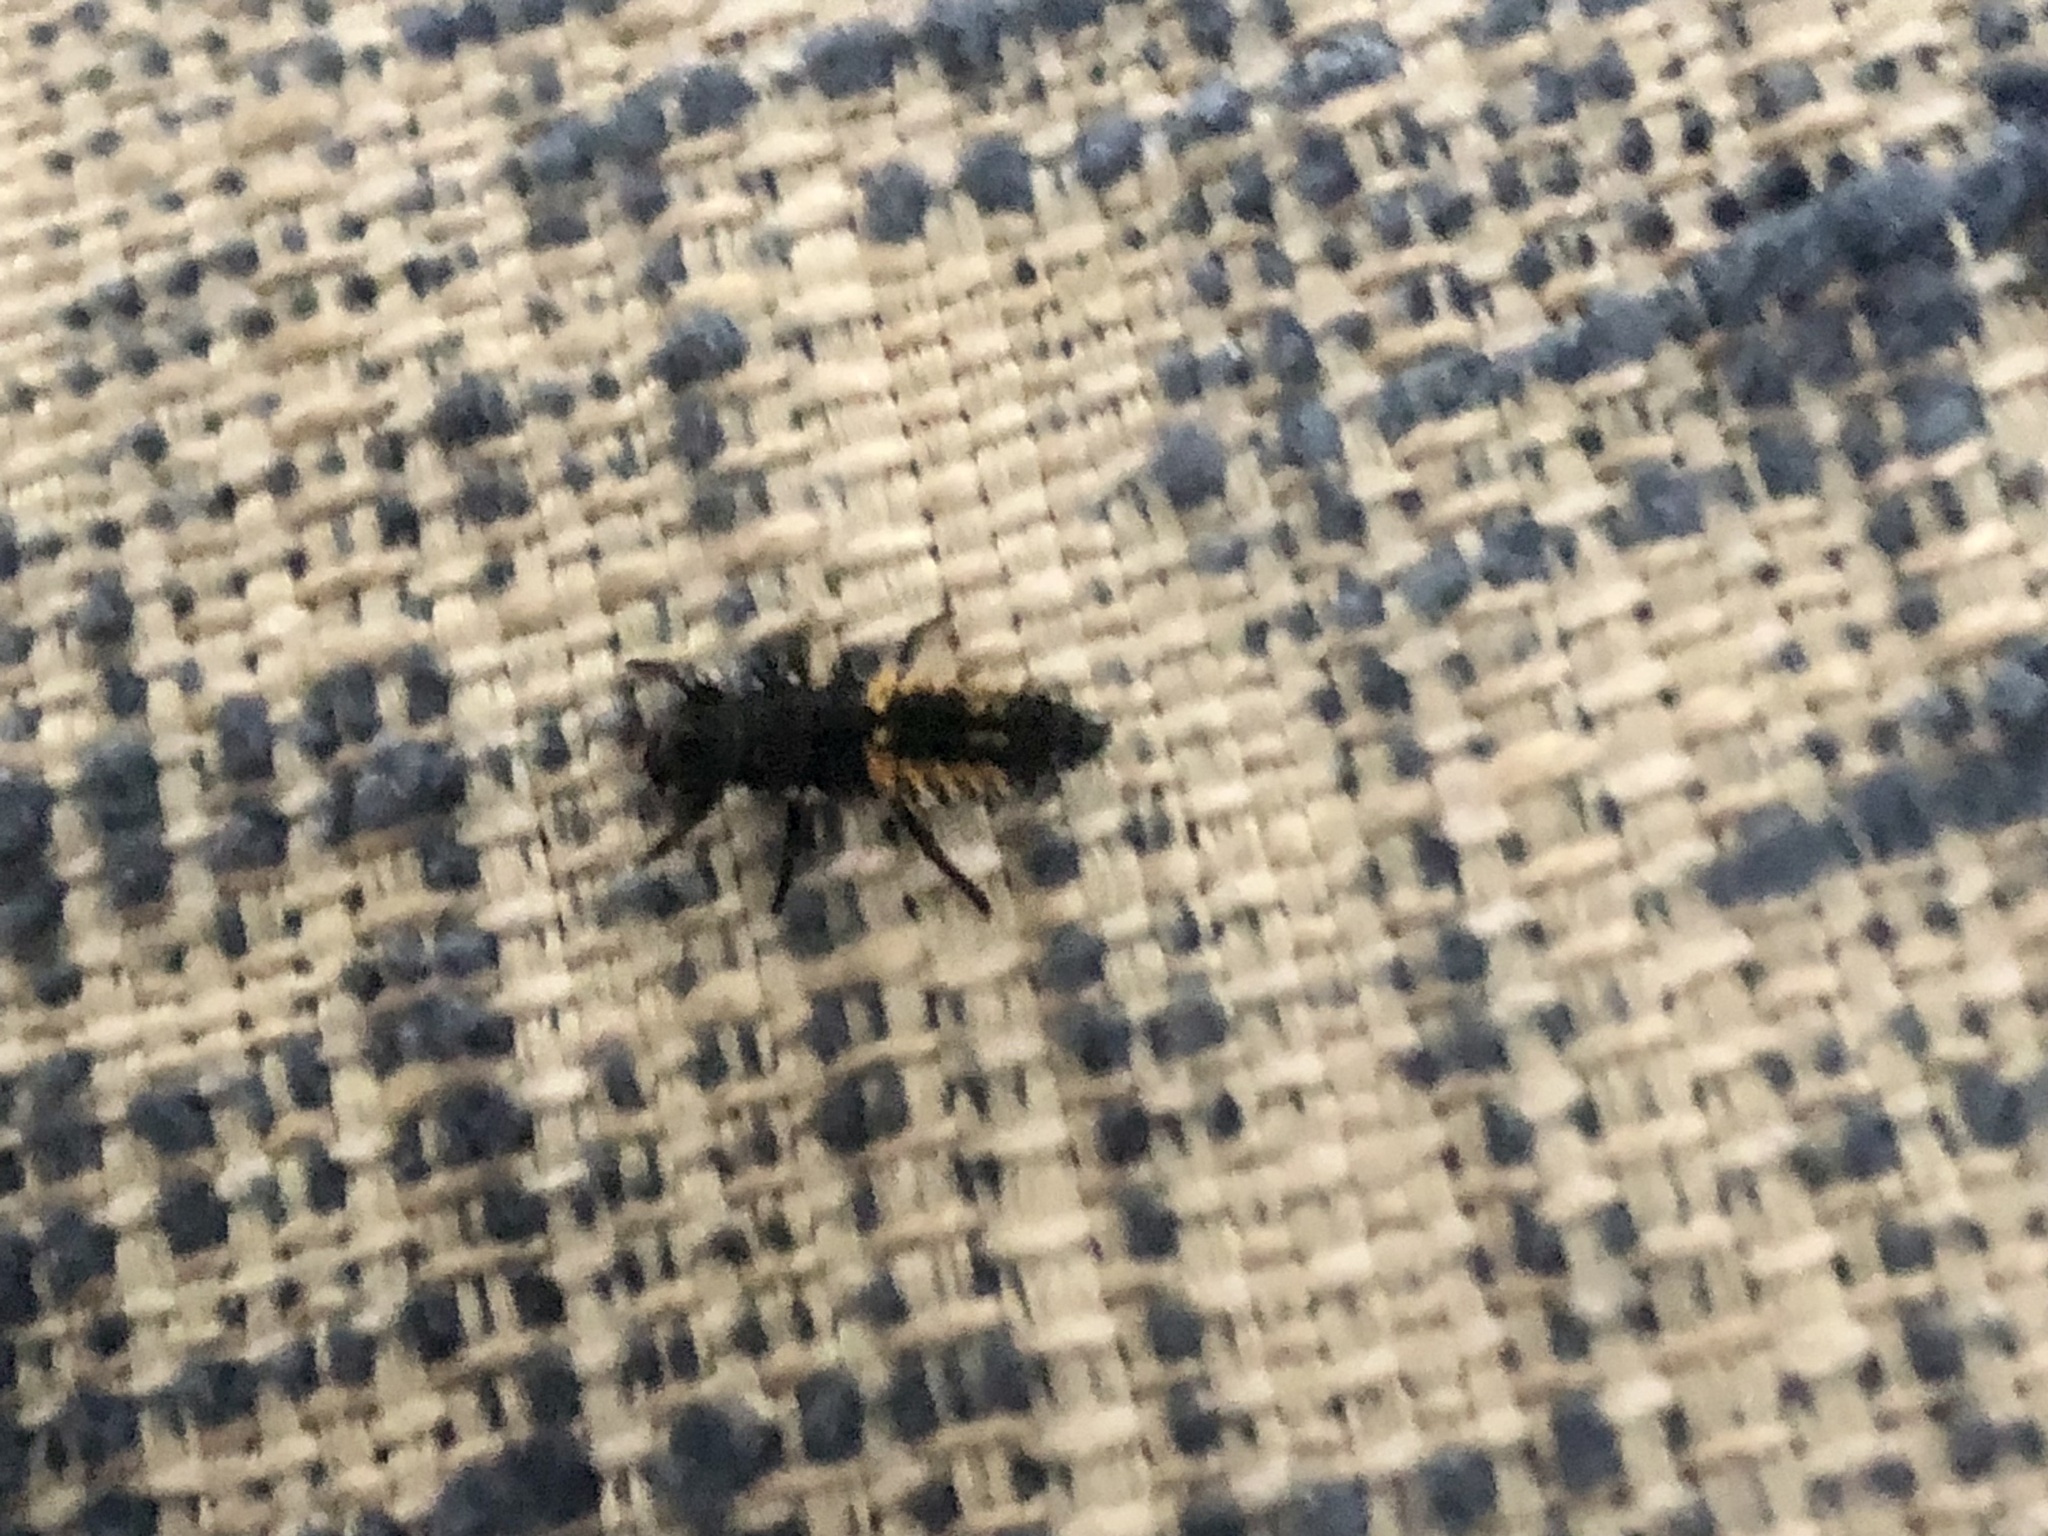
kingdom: Animalia
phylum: Arthropoda
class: Insecta
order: Coleoptera
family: Coccinellidae
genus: Harmonia
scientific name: Harmonia axyridis
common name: Harlequin ladybird
